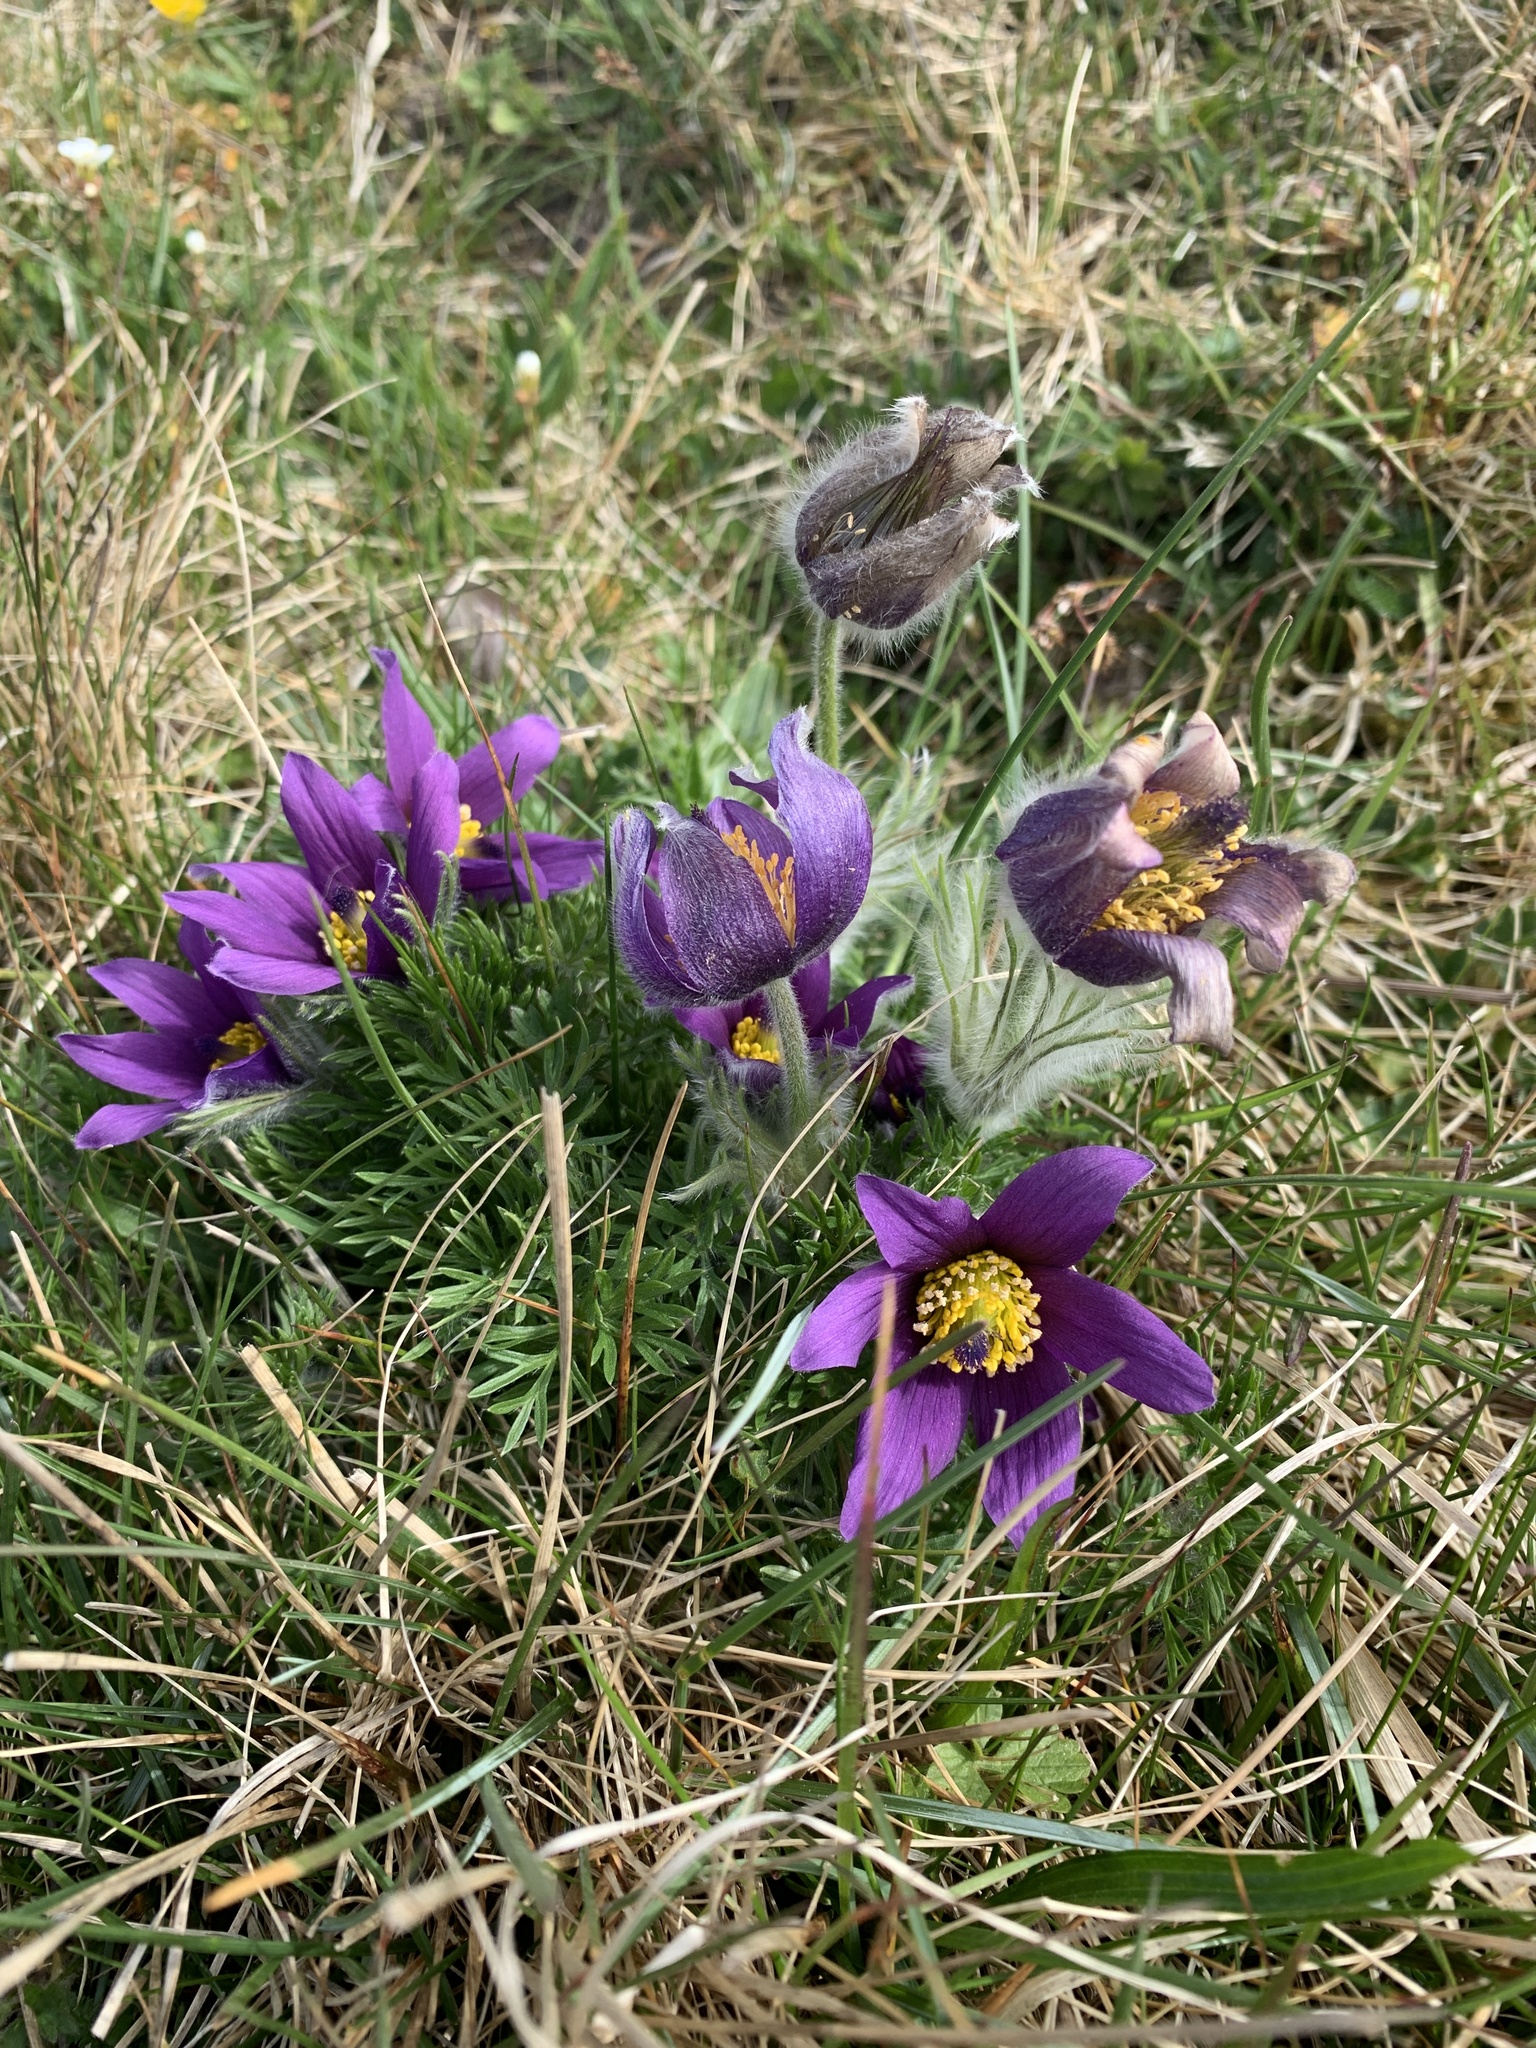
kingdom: Plantae
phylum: Tracheophyta
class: Magnoliopsida
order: Ranunculales
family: Ranunculaceae
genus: Pulsatilla
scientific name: Pulsatilla vulgaris
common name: Pasqueflower
